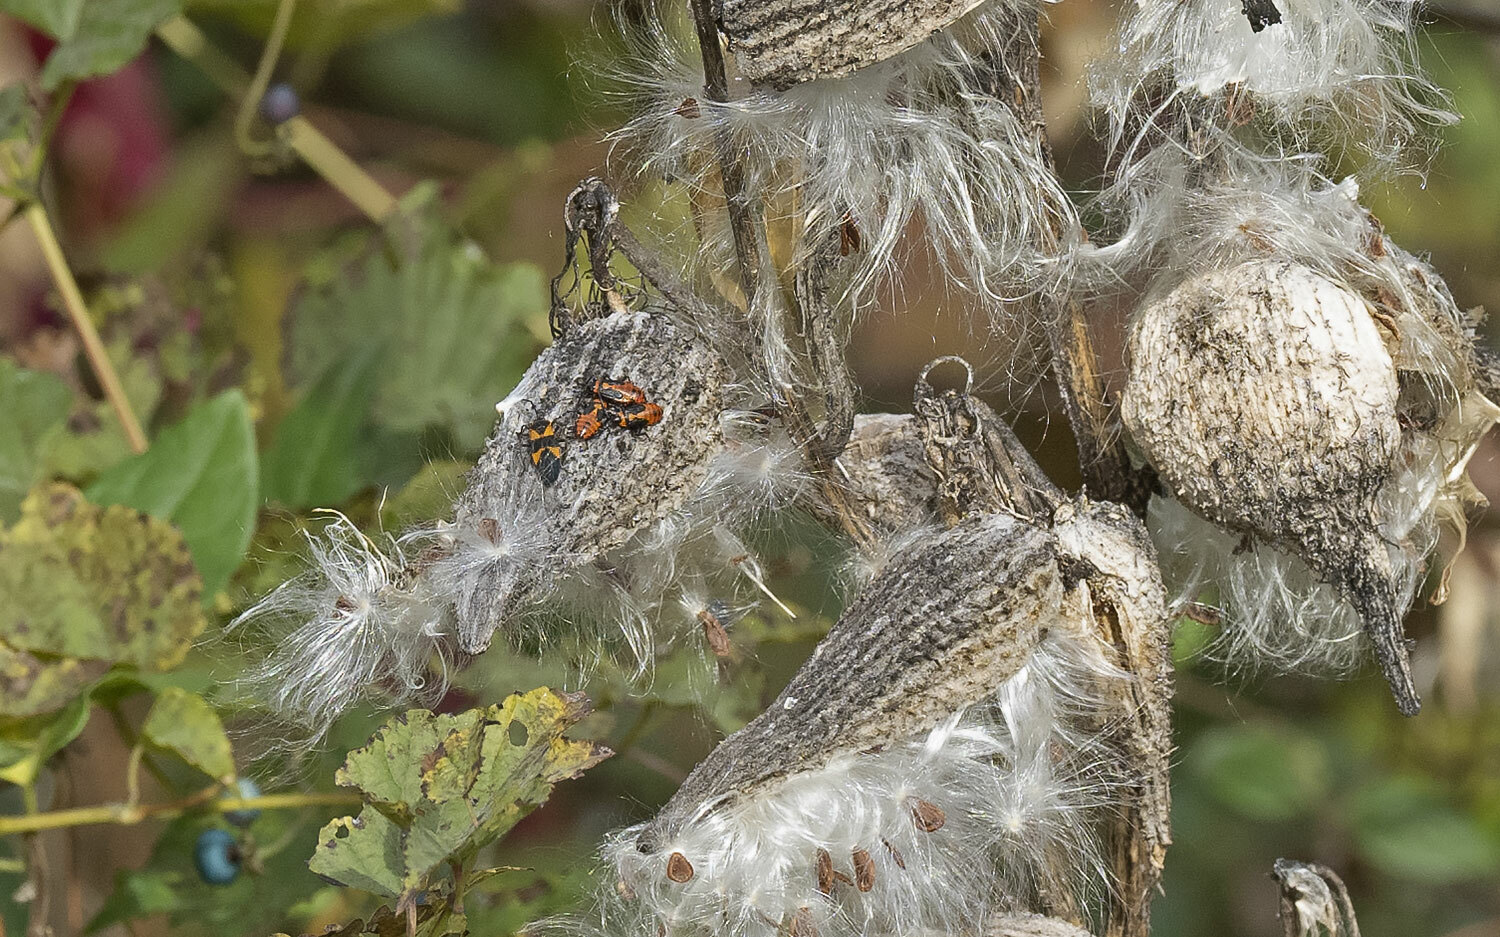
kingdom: Animalia
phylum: Arthropoda
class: Insecta
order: Hemiptera
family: Lygaeidae
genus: Oncopeltus
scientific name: Oncopeltus fasciatus
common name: Large milkweed bug
